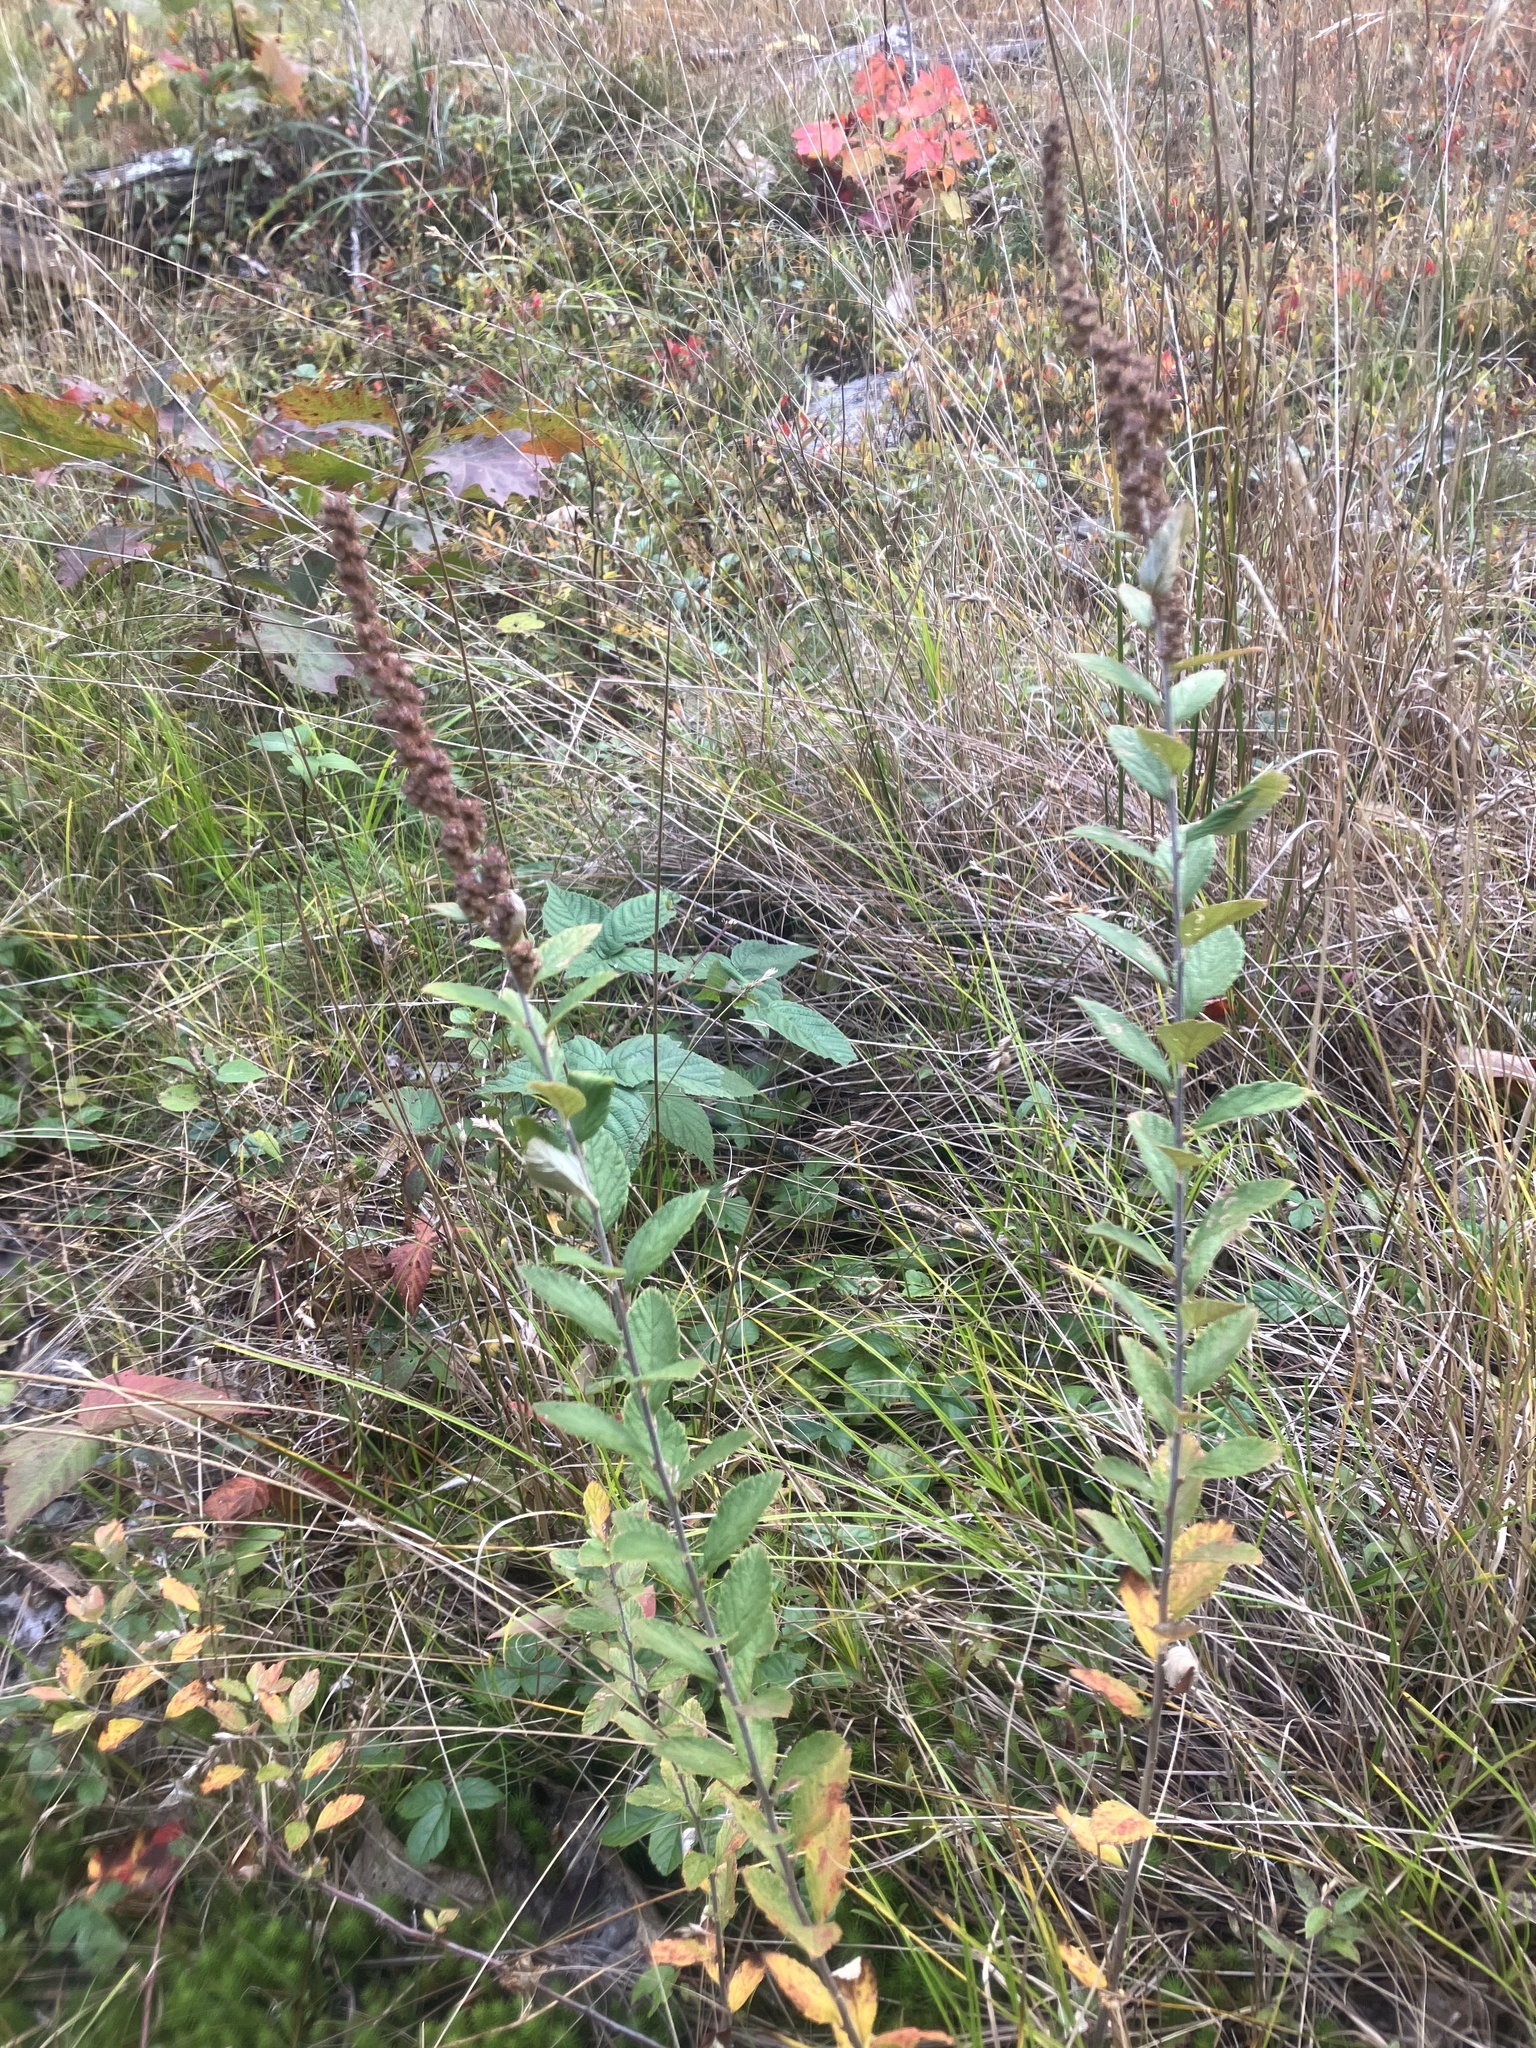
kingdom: Plantae
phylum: Tracheophyta
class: Magnoliopsida
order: Rosales
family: Rosaceae
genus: Spiraea
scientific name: Spiraea tomentosa
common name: Hardhack
